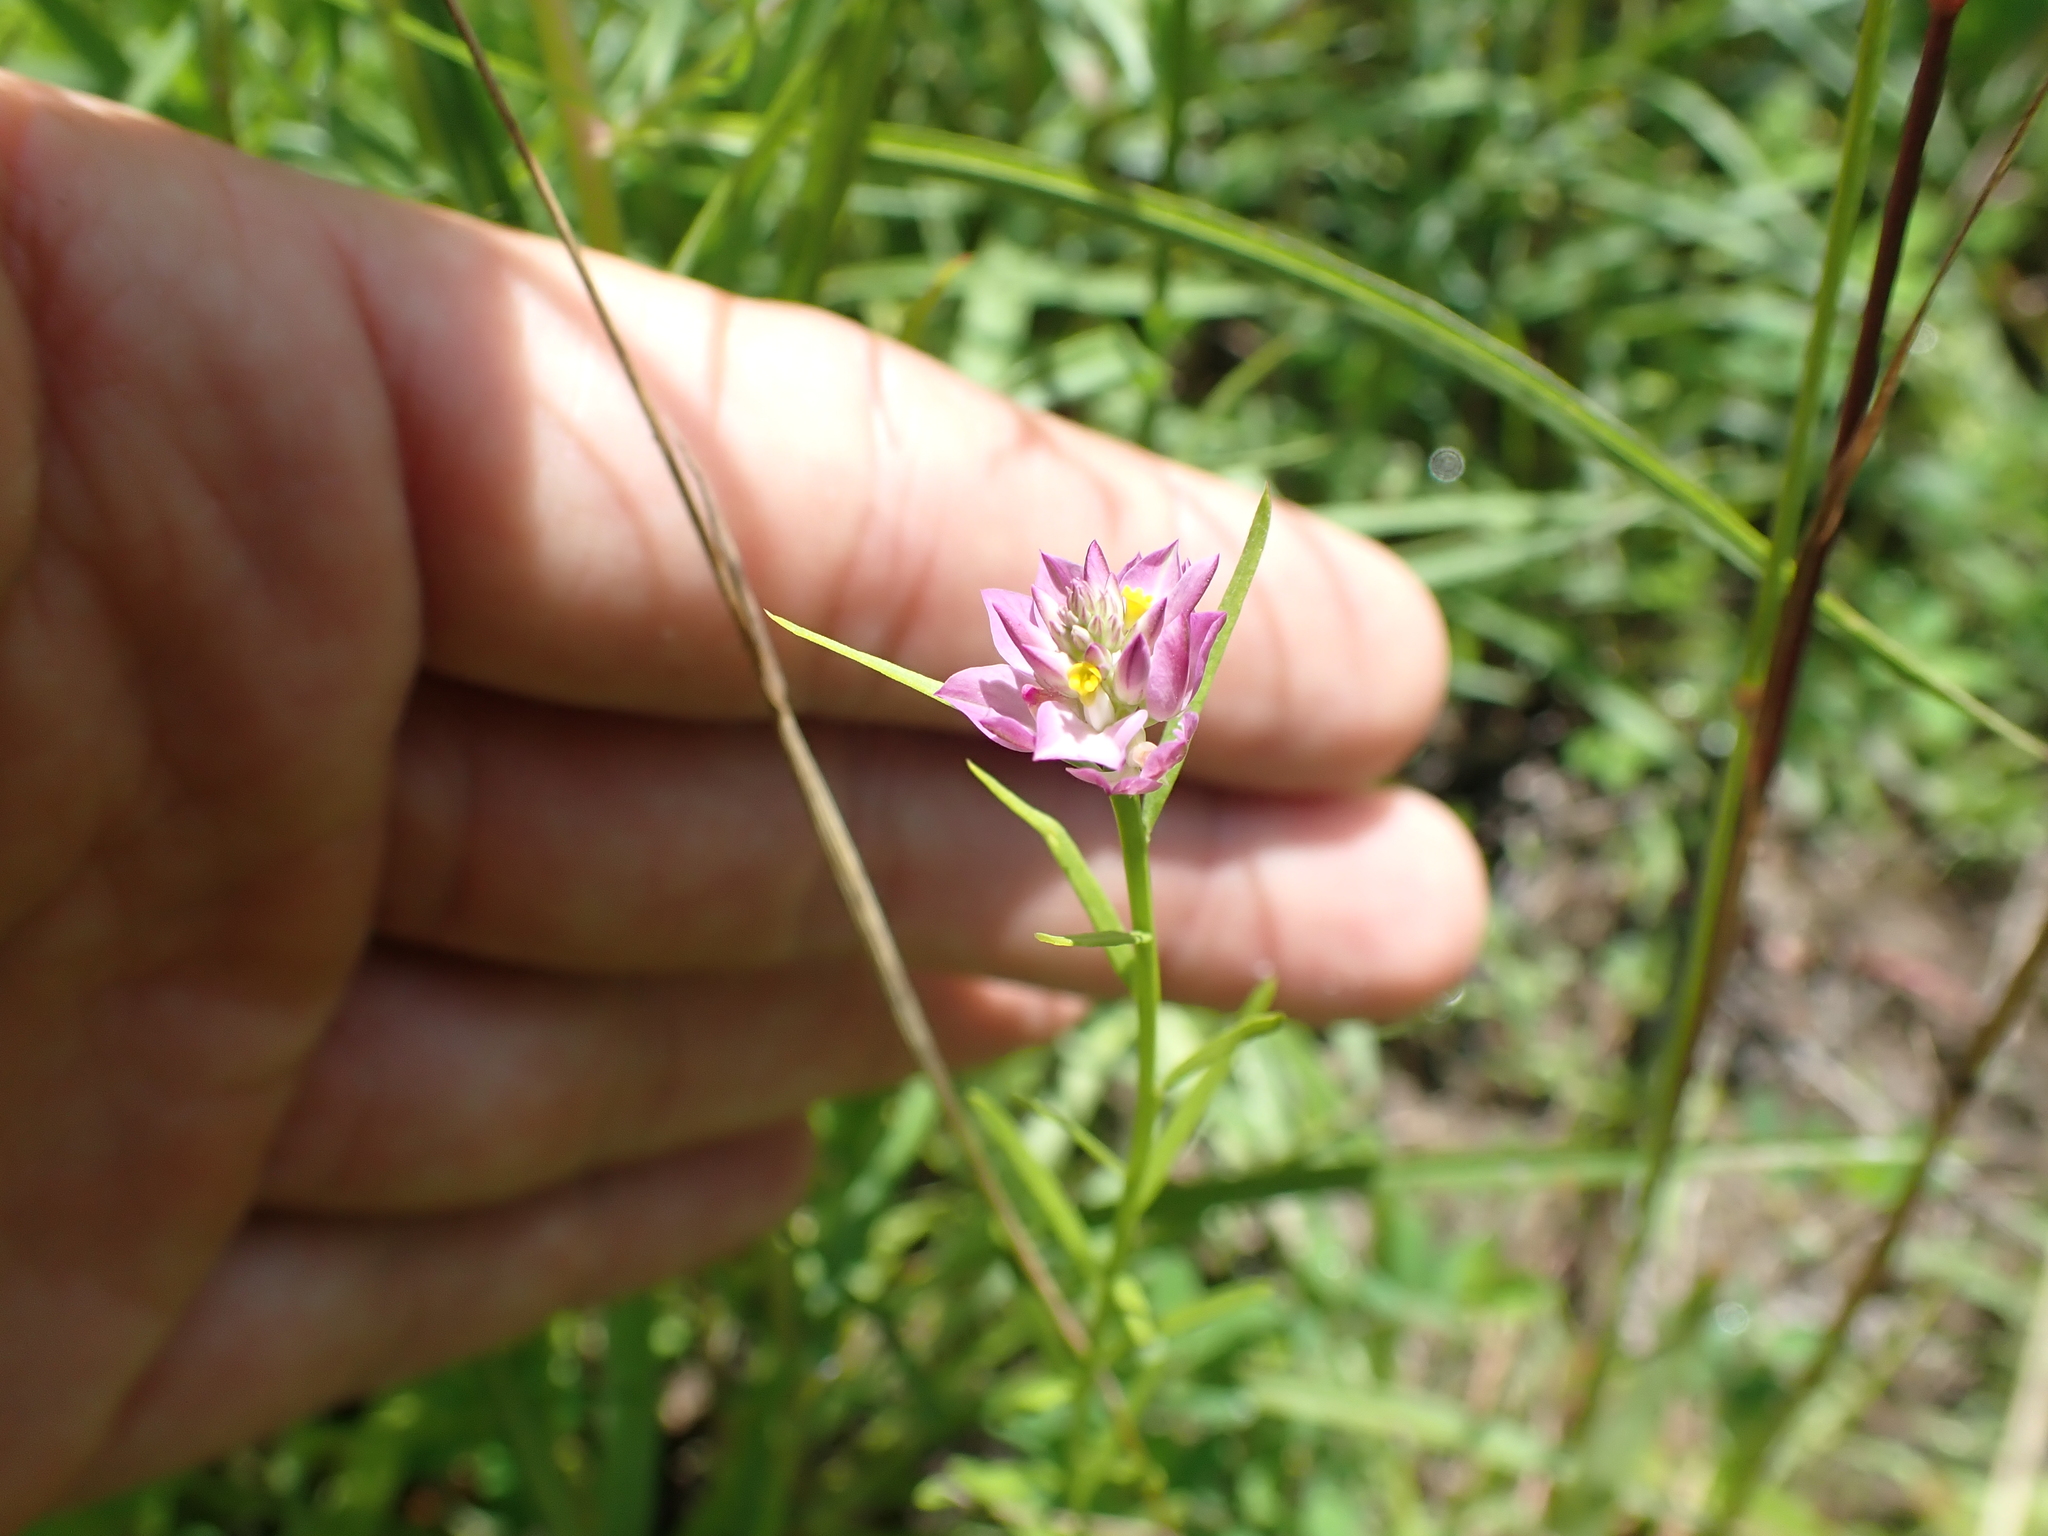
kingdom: Plantae
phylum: Tracheophyta
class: Magnoliopsida
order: Fabales
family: Polygalaceae
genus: Polygala
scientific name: Polygala sanguinea
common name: Blood milkwort
